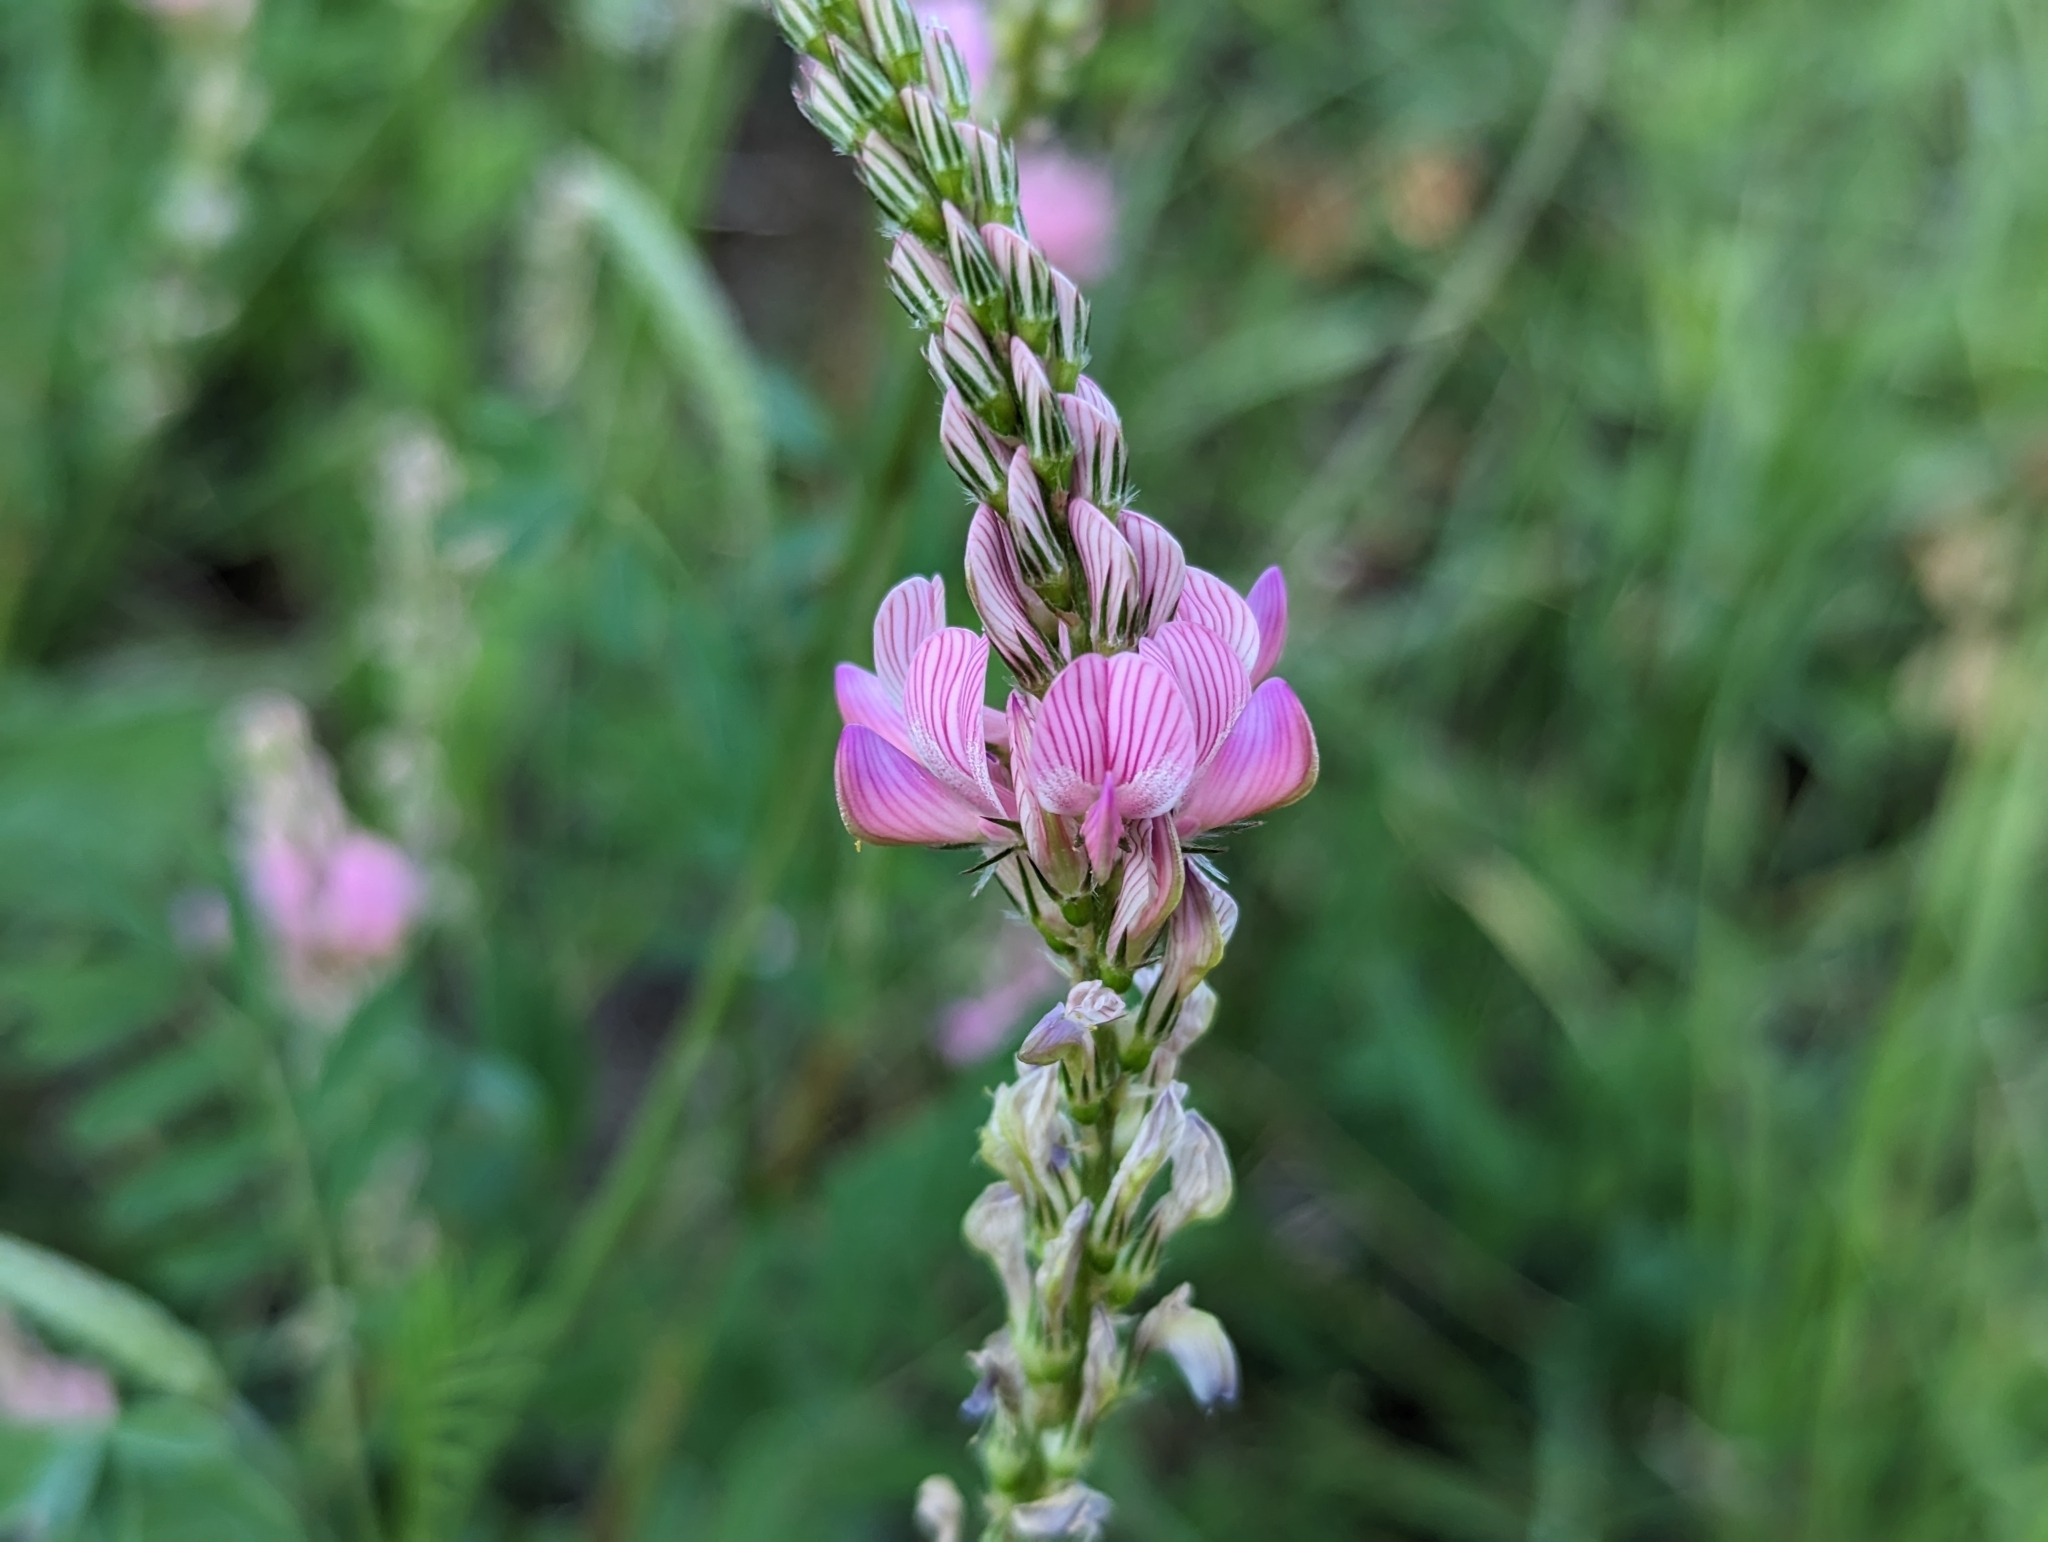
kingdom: Plantae
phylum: Tracheophyta
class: Magnoliopsida
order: Fabales
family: Fabaceae
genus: Onobrychis
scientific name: Onobrychis viciifolia
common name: Sainfoin
